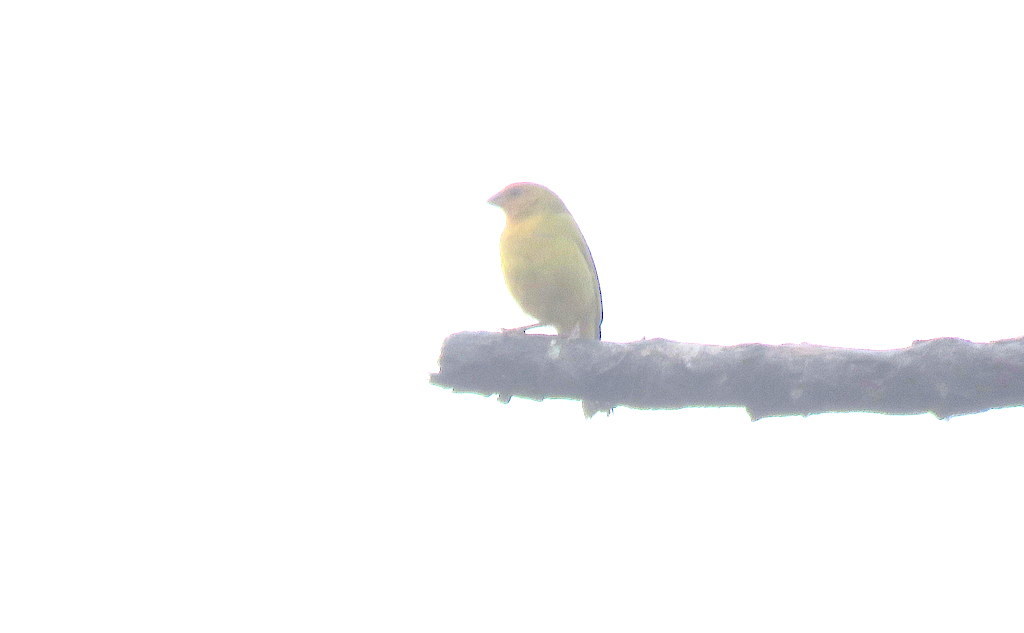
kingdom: Animalia
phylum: Chordata
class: Aves
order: Passeriformes
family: Thraupidae
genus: Sicalis
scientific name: Sicalis flaveola
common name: Saffron finch
